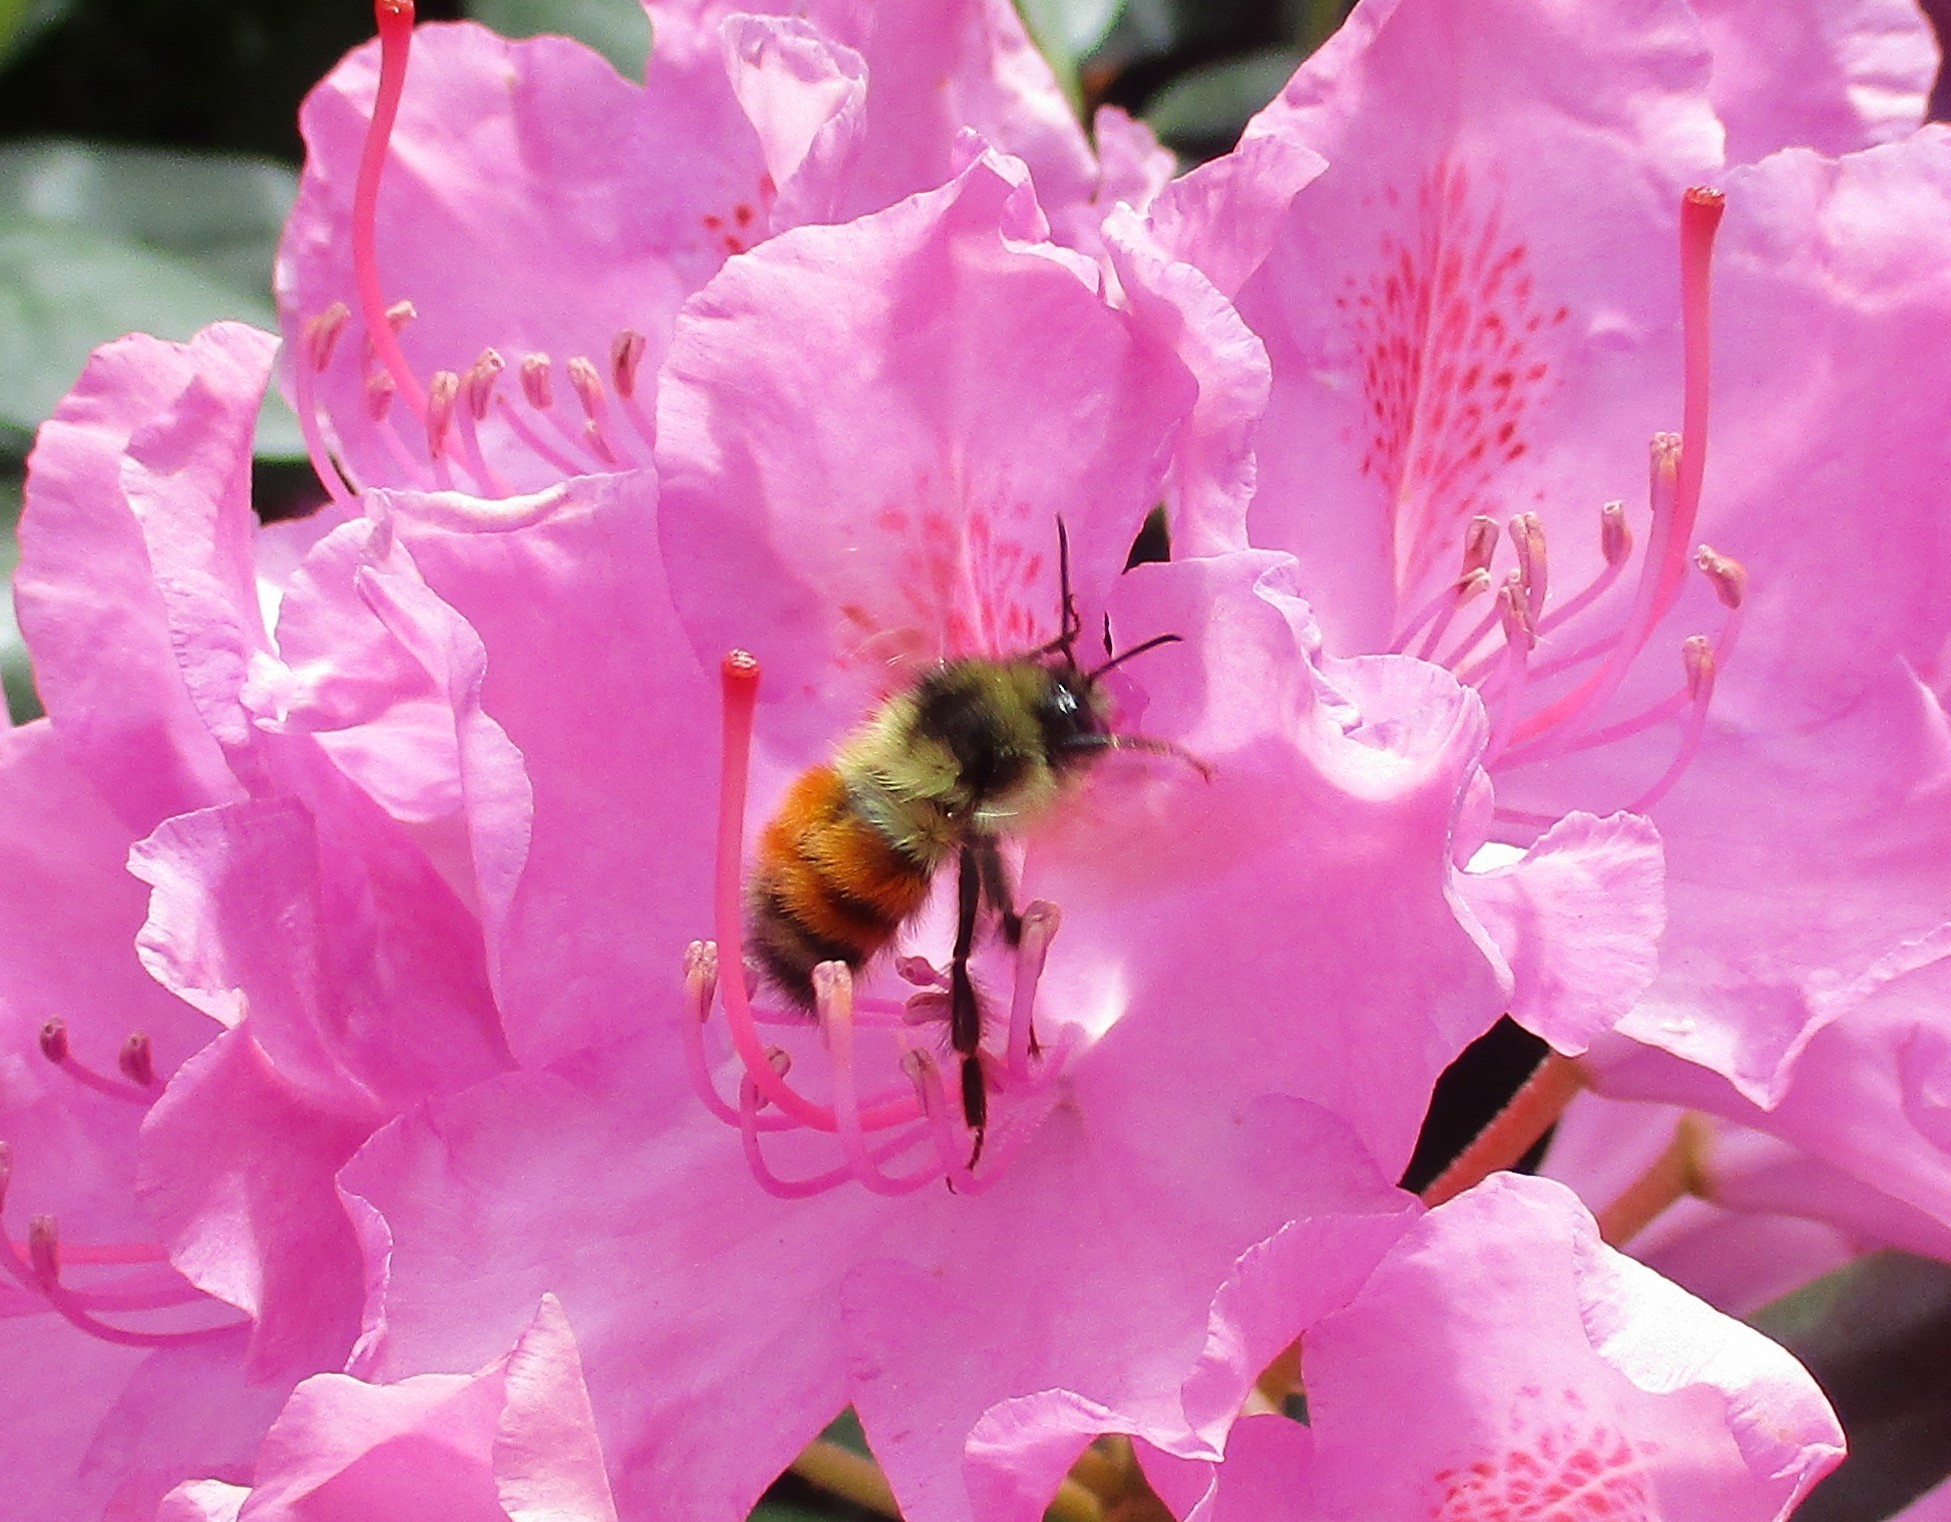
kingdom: Animalia
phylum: Arthropoda
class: Insecta
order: Hymenoptera
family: Apidae
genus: Bombus
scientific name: Bombus melanopygus
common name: Black tail bumble bee
